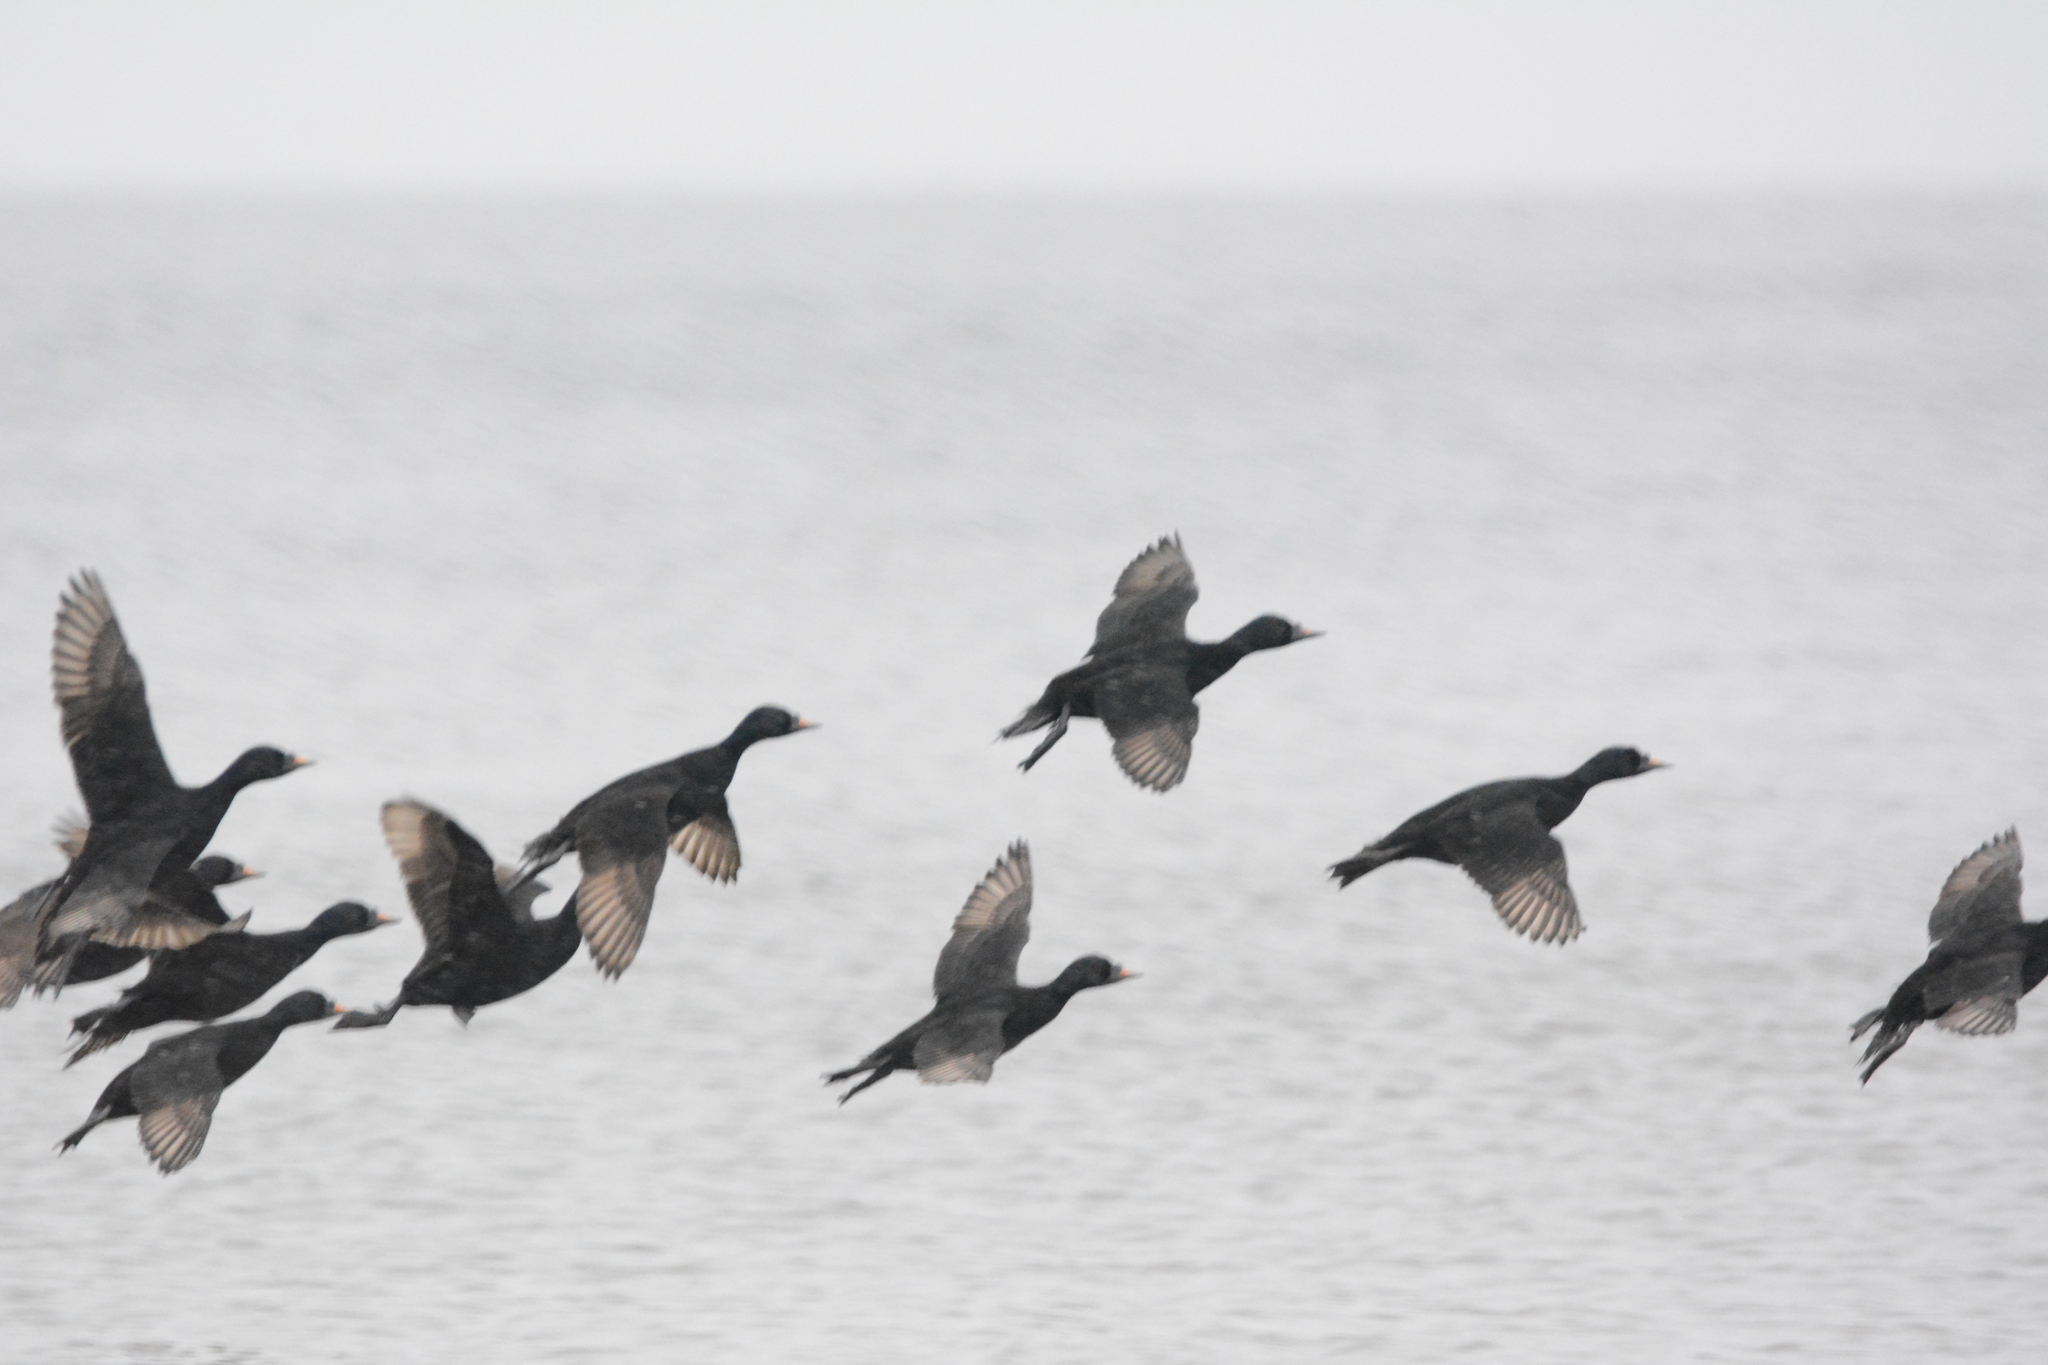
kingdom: Animalia
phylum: Chordata
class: Aves
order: Anseriformes
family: Anatidae
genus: Melanitta
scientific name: Melanitta nigra
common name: Common scoter
